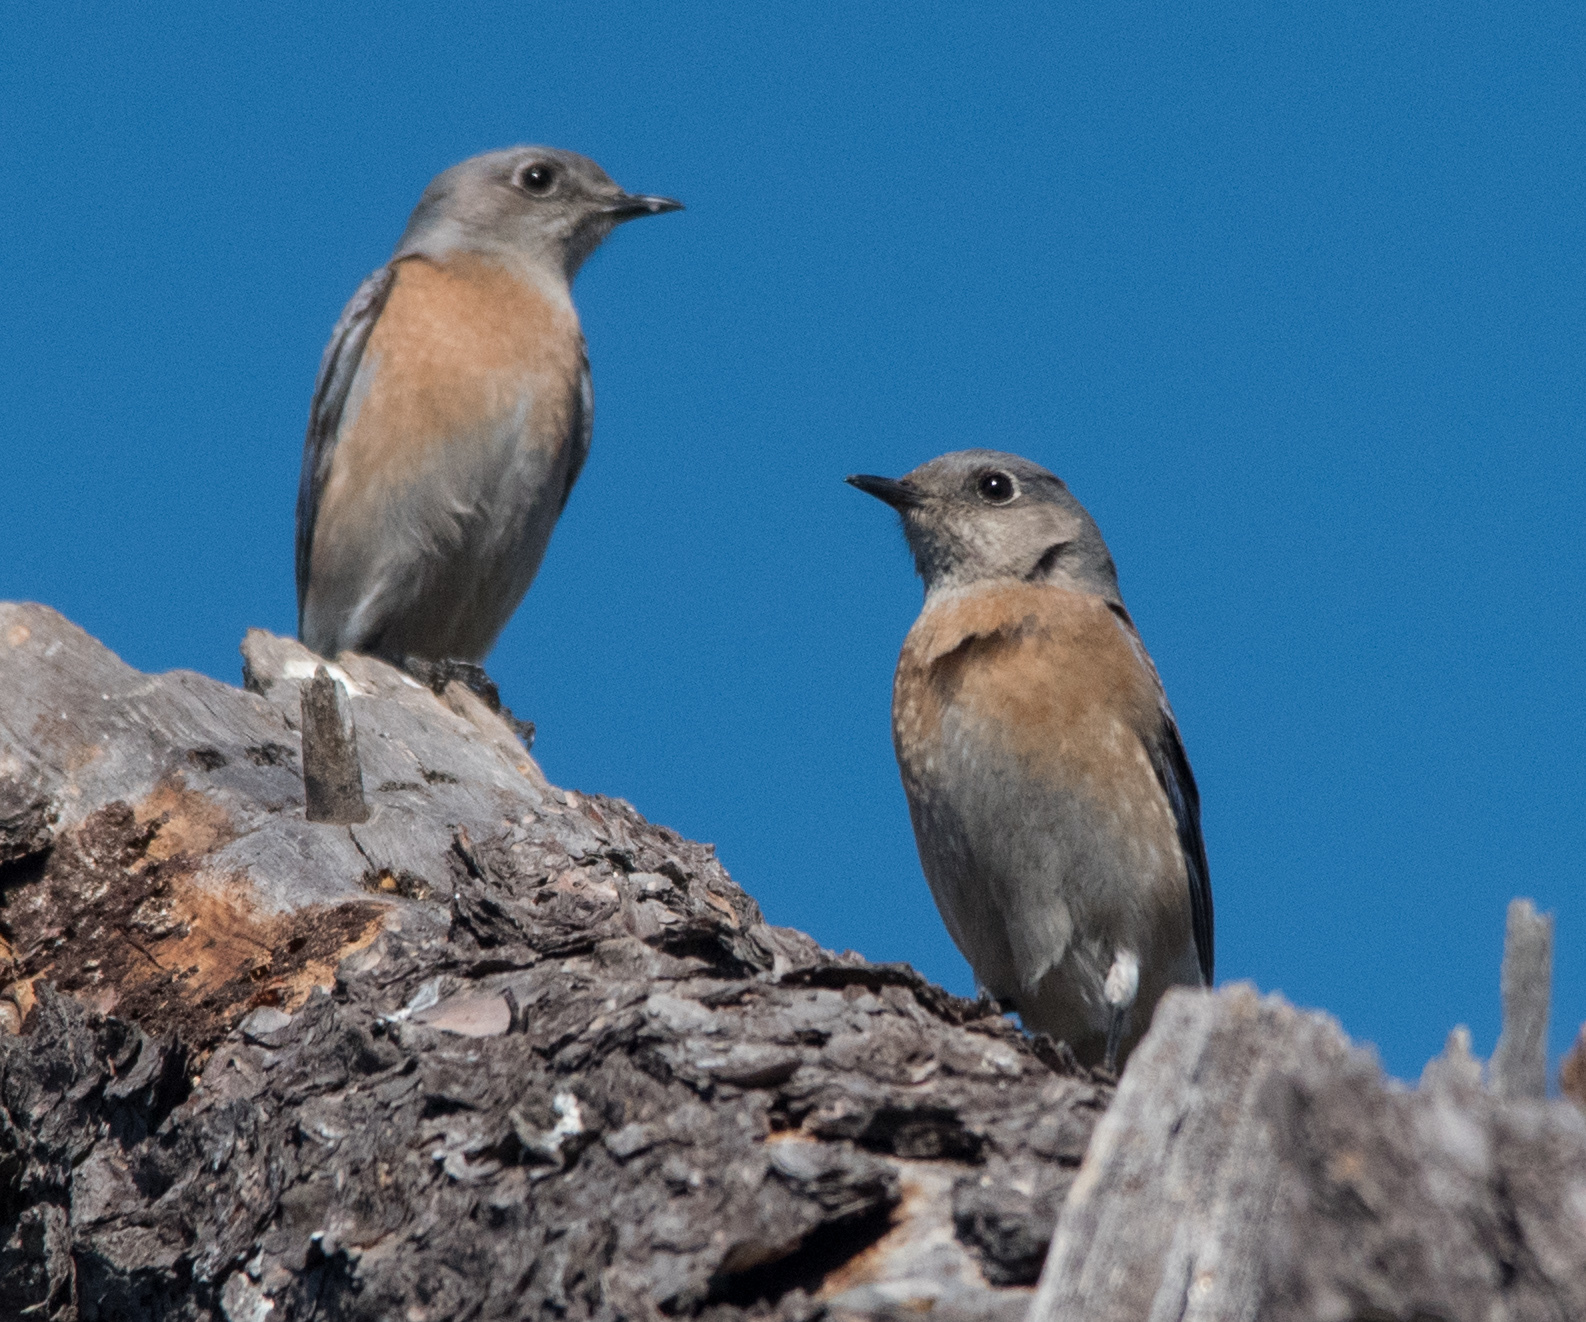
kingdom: Animalia
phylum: Chordata
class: Aves
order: Passeriformes
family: Turdidae
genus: Sialia
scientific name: Sialia mexicana
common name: Western bluebird
